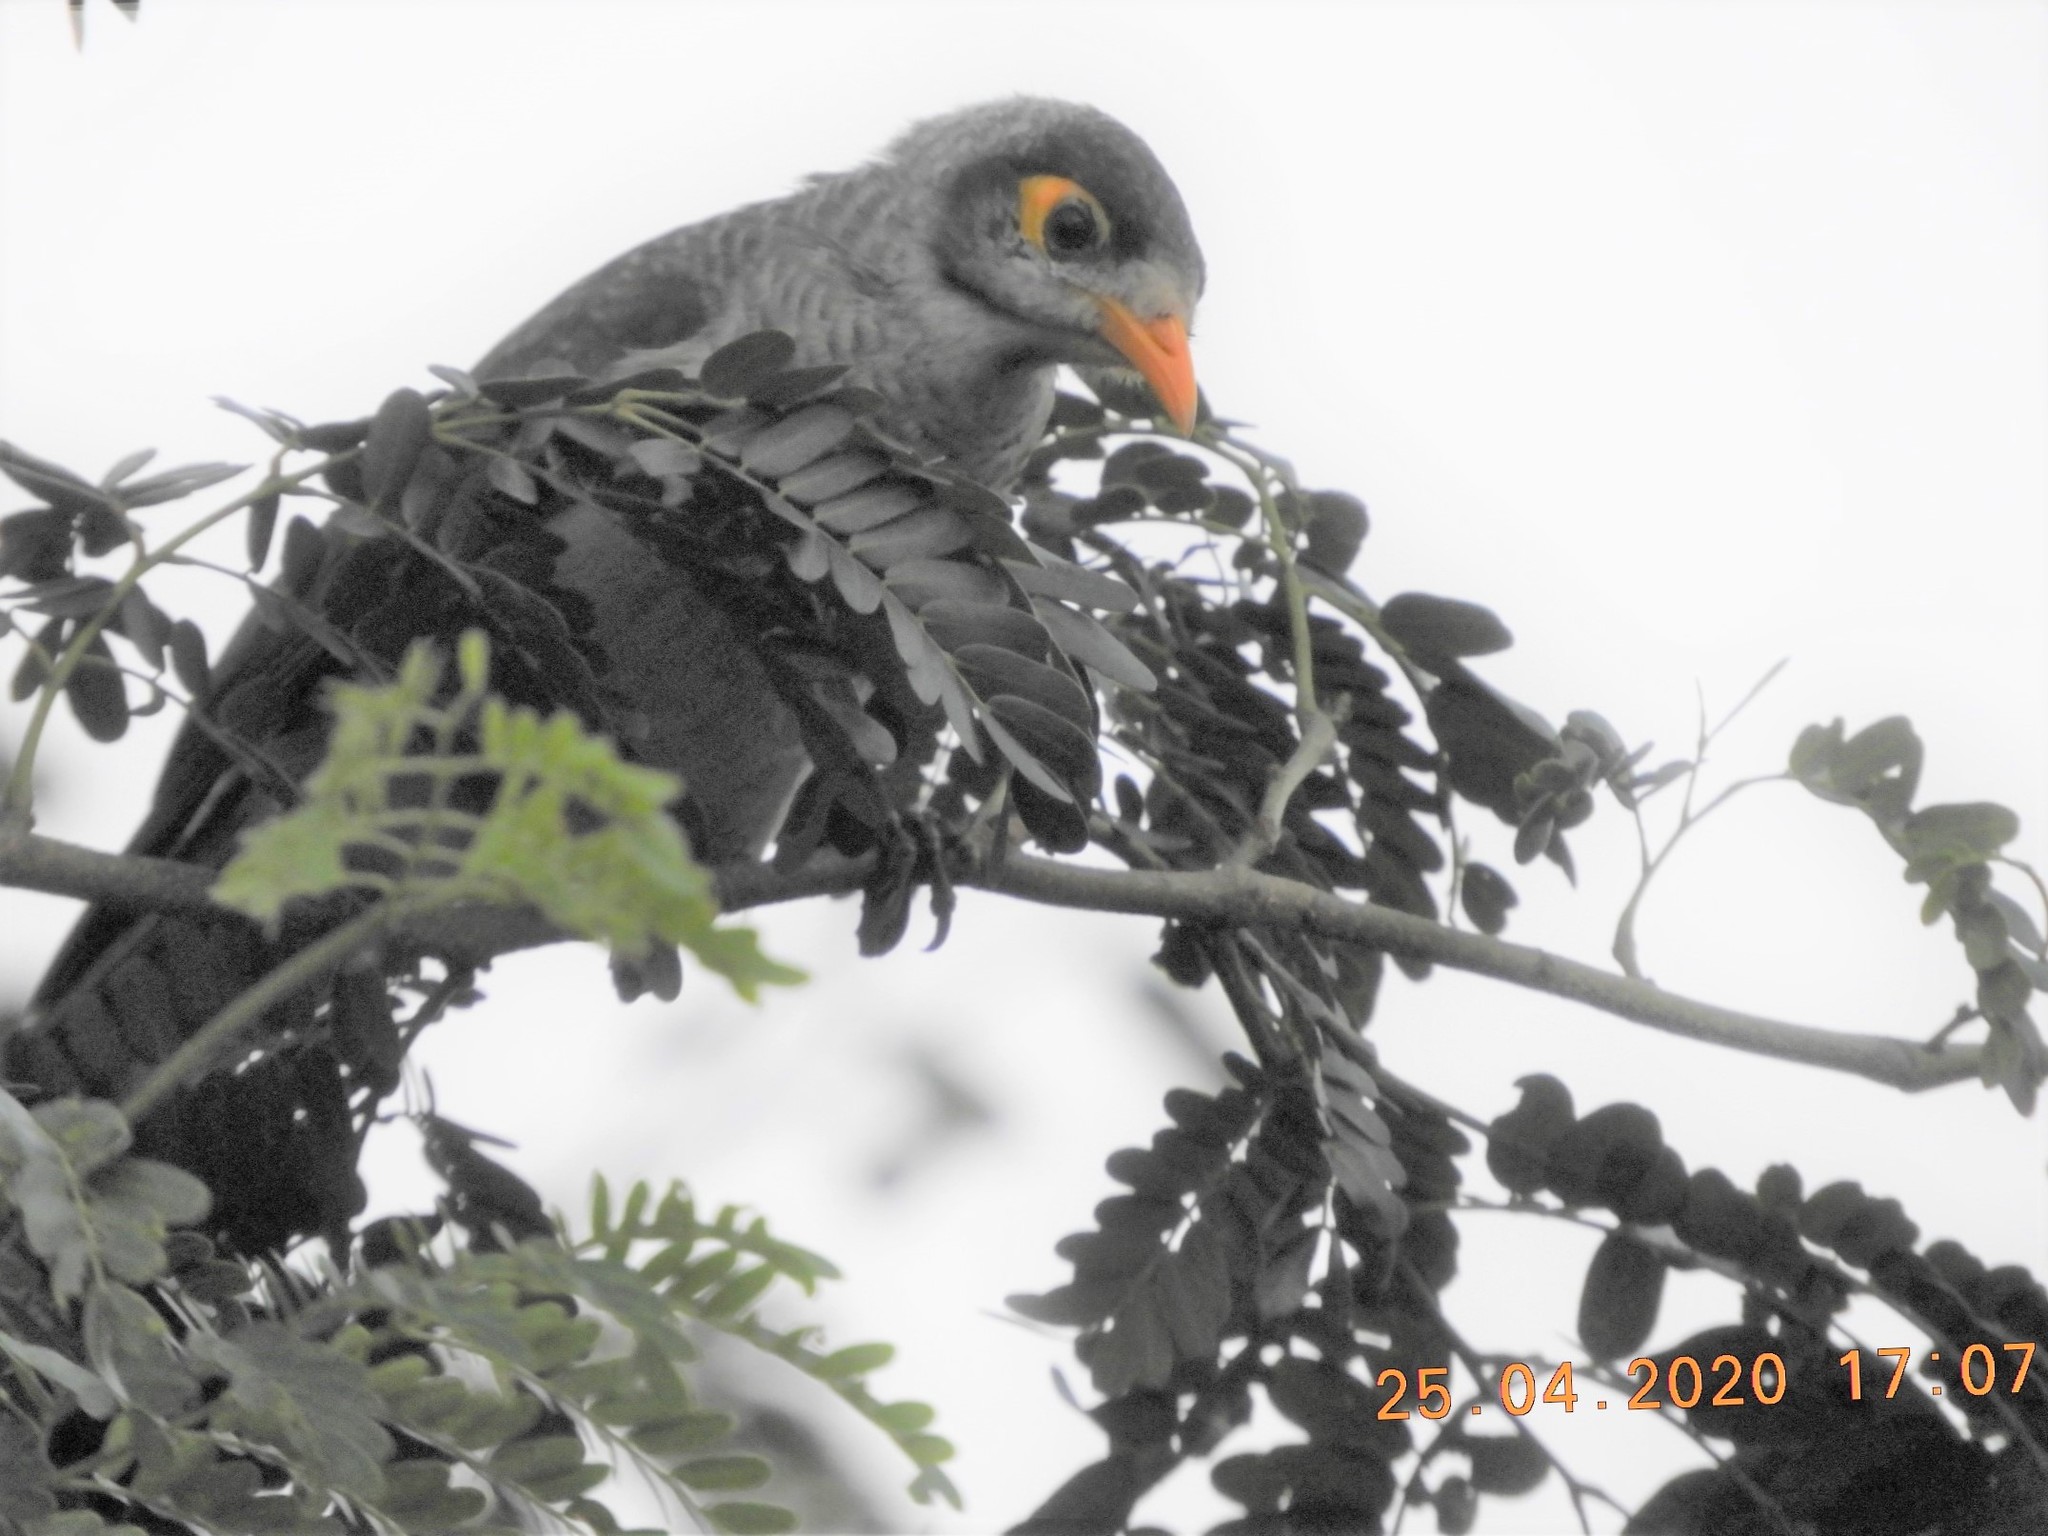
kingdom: Animalia
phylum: Chordata
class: Aves
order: Passeriformes
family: Meliphagidae
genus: Manorina
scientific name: Manorina melanocephala
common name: Noisy miner
